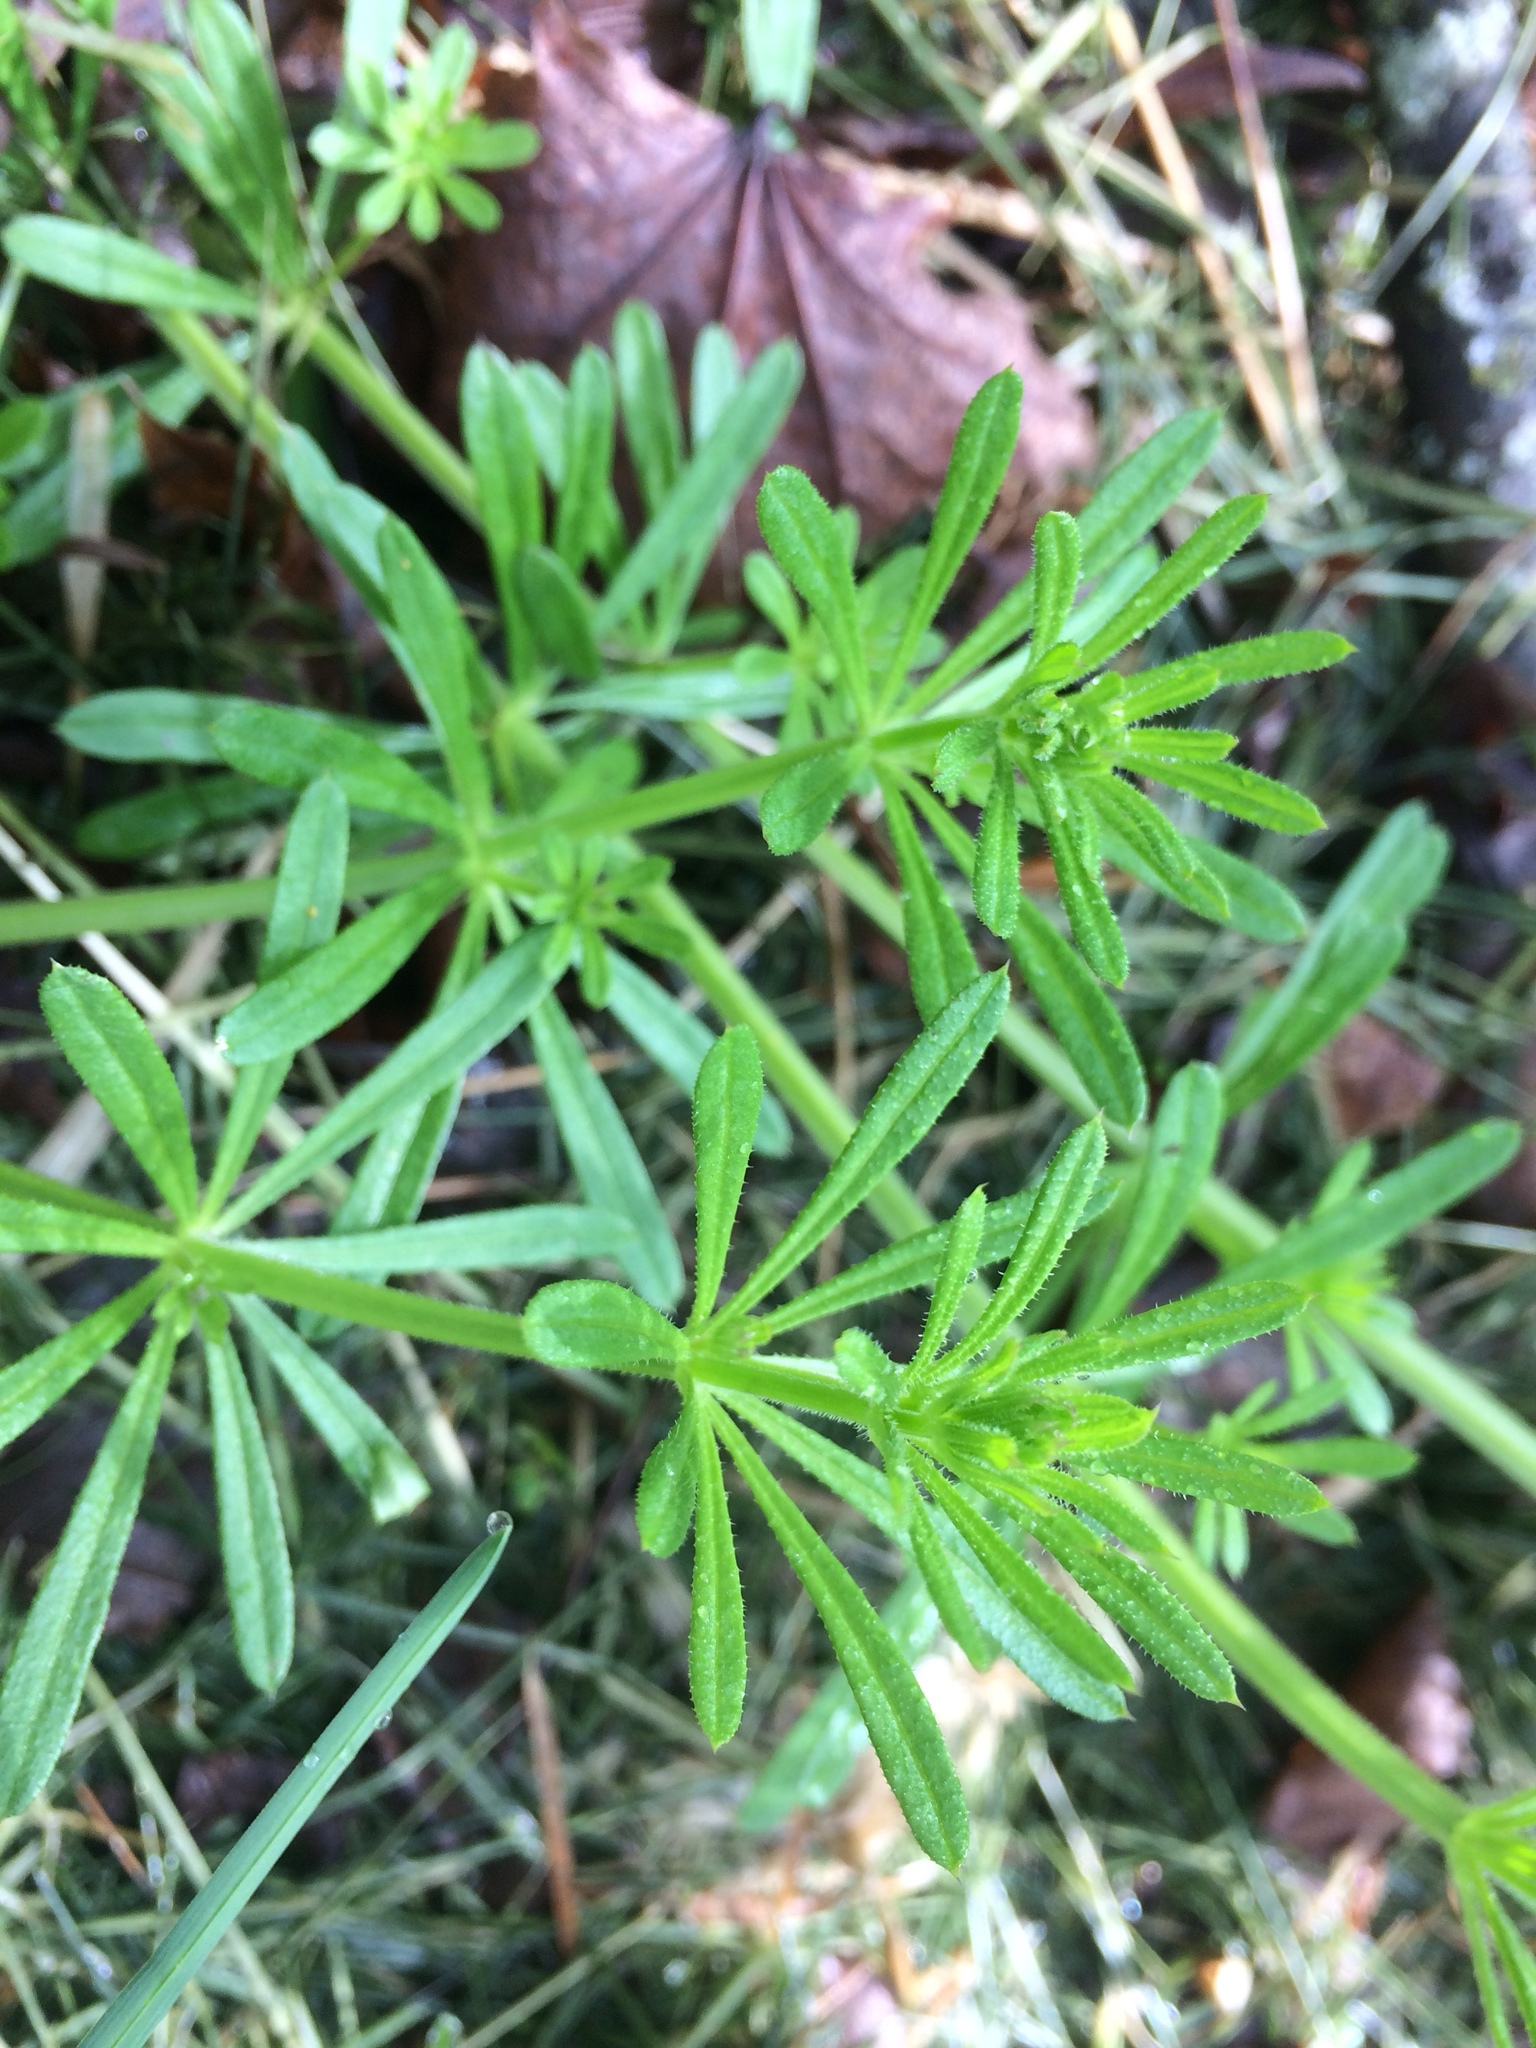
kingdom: Plantae
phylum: Tracheophyta
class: Magnoliopsida
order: Gentianales
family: Rubiaceae
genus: Galium
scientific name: Galium aparine
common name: Cleavers
